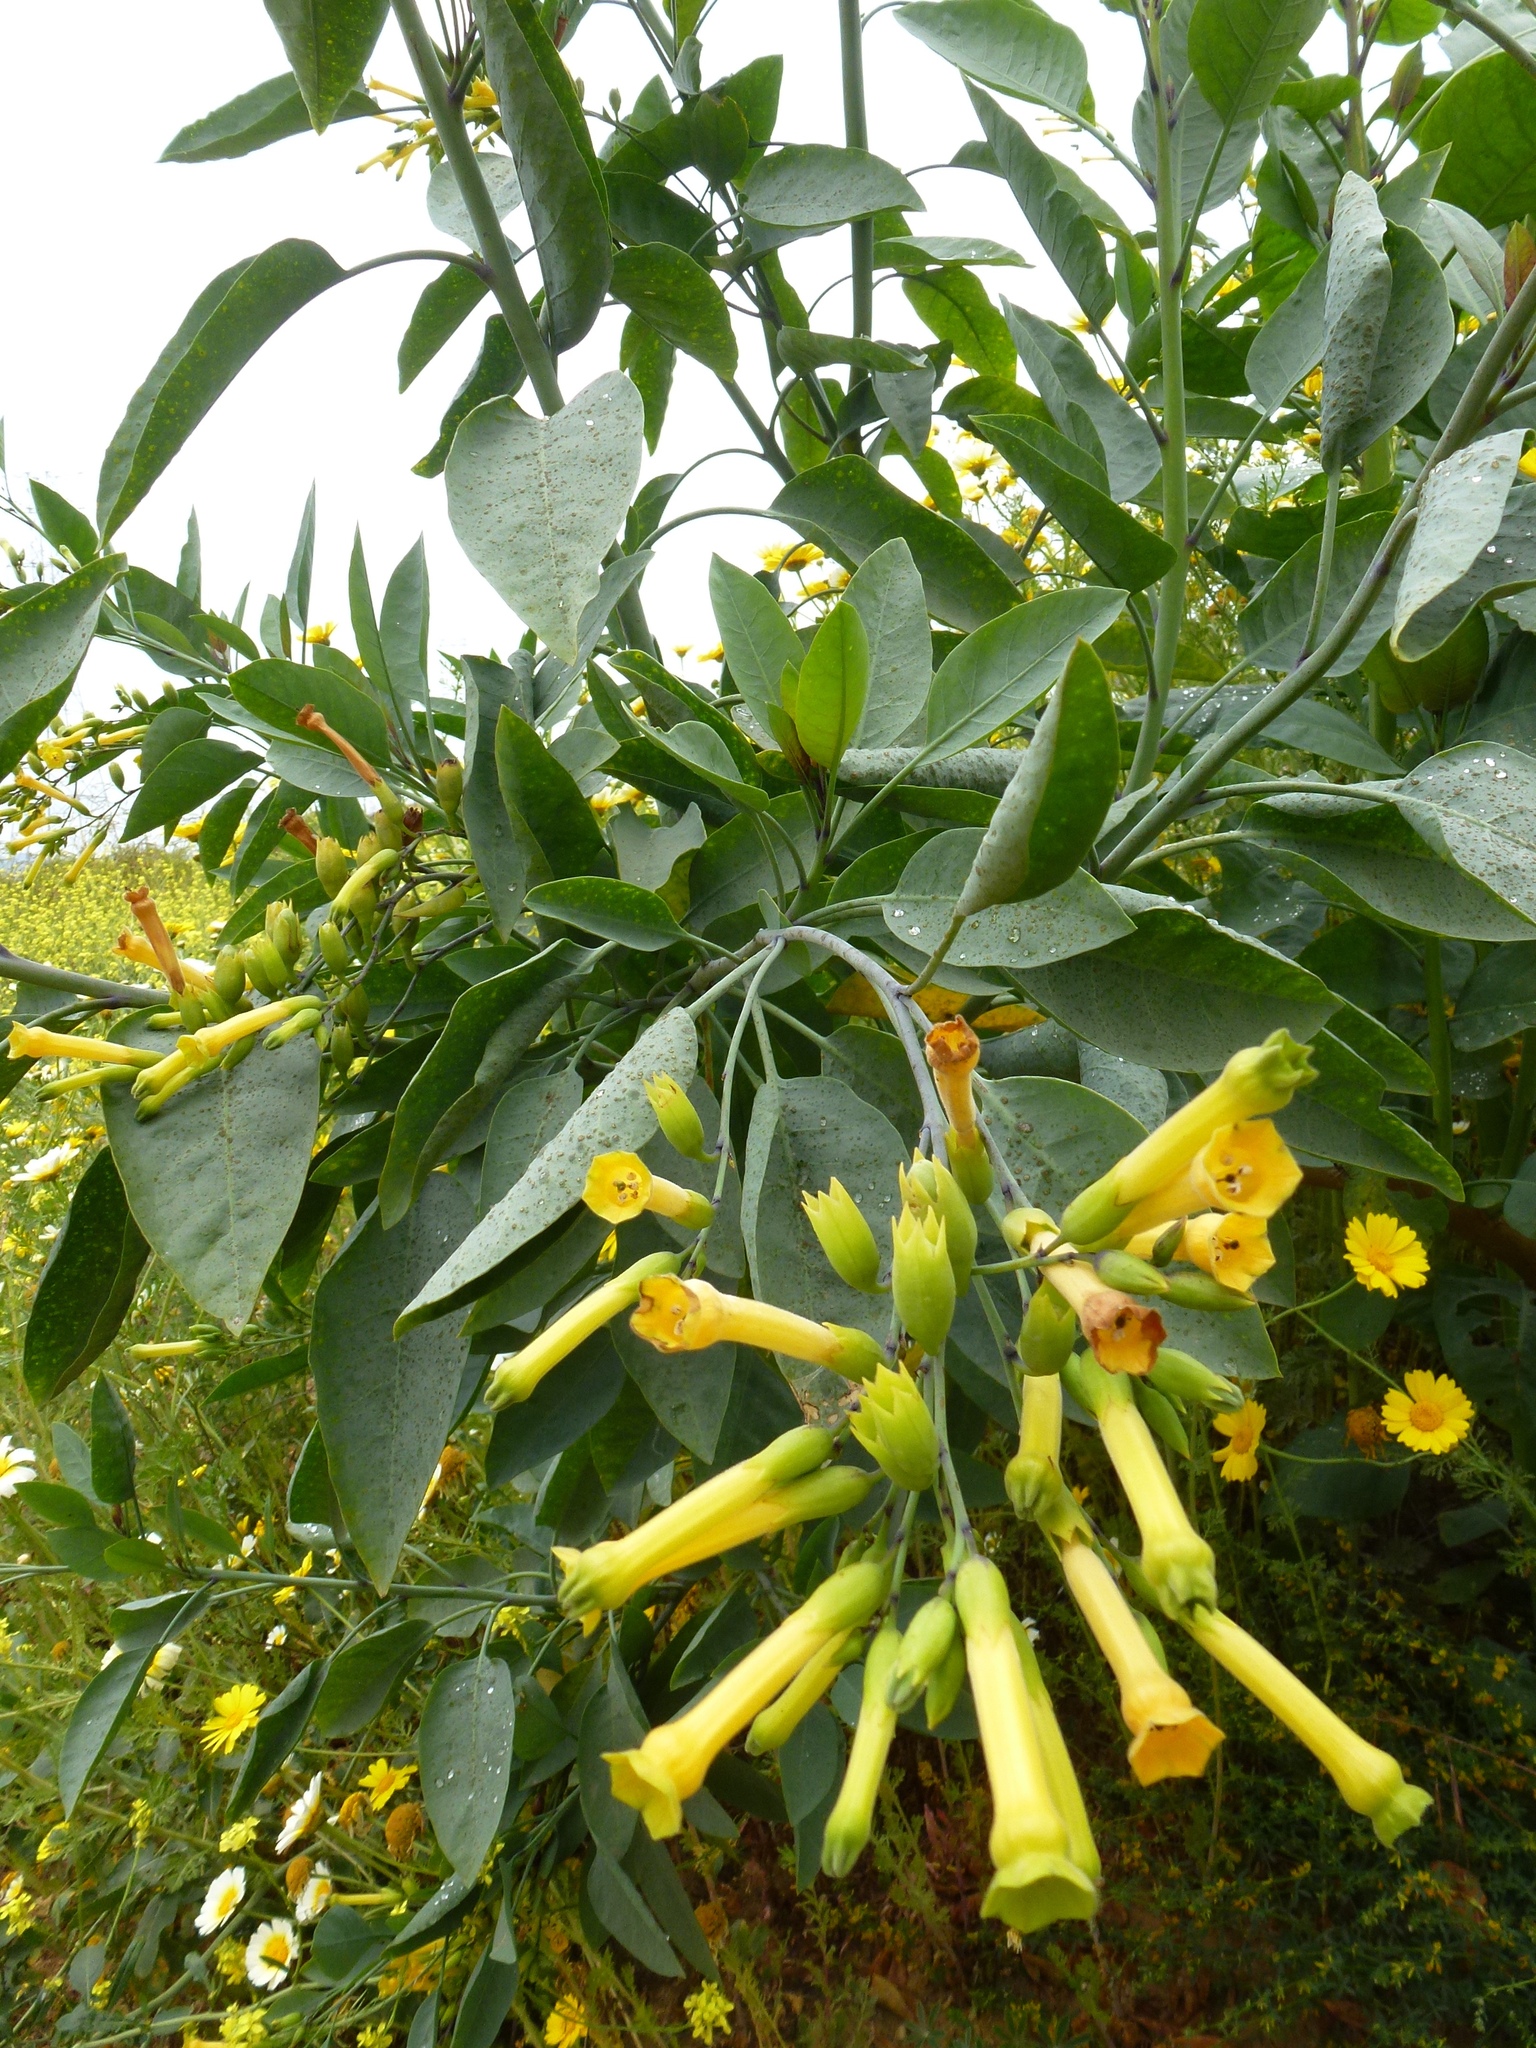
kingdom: Plantae
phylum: Tracheophyta
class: Magnoliopsida
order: Solanales
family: Solanaceae
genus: Nicotiana
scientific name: Nicotiana glauca
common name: Tree tobacco
